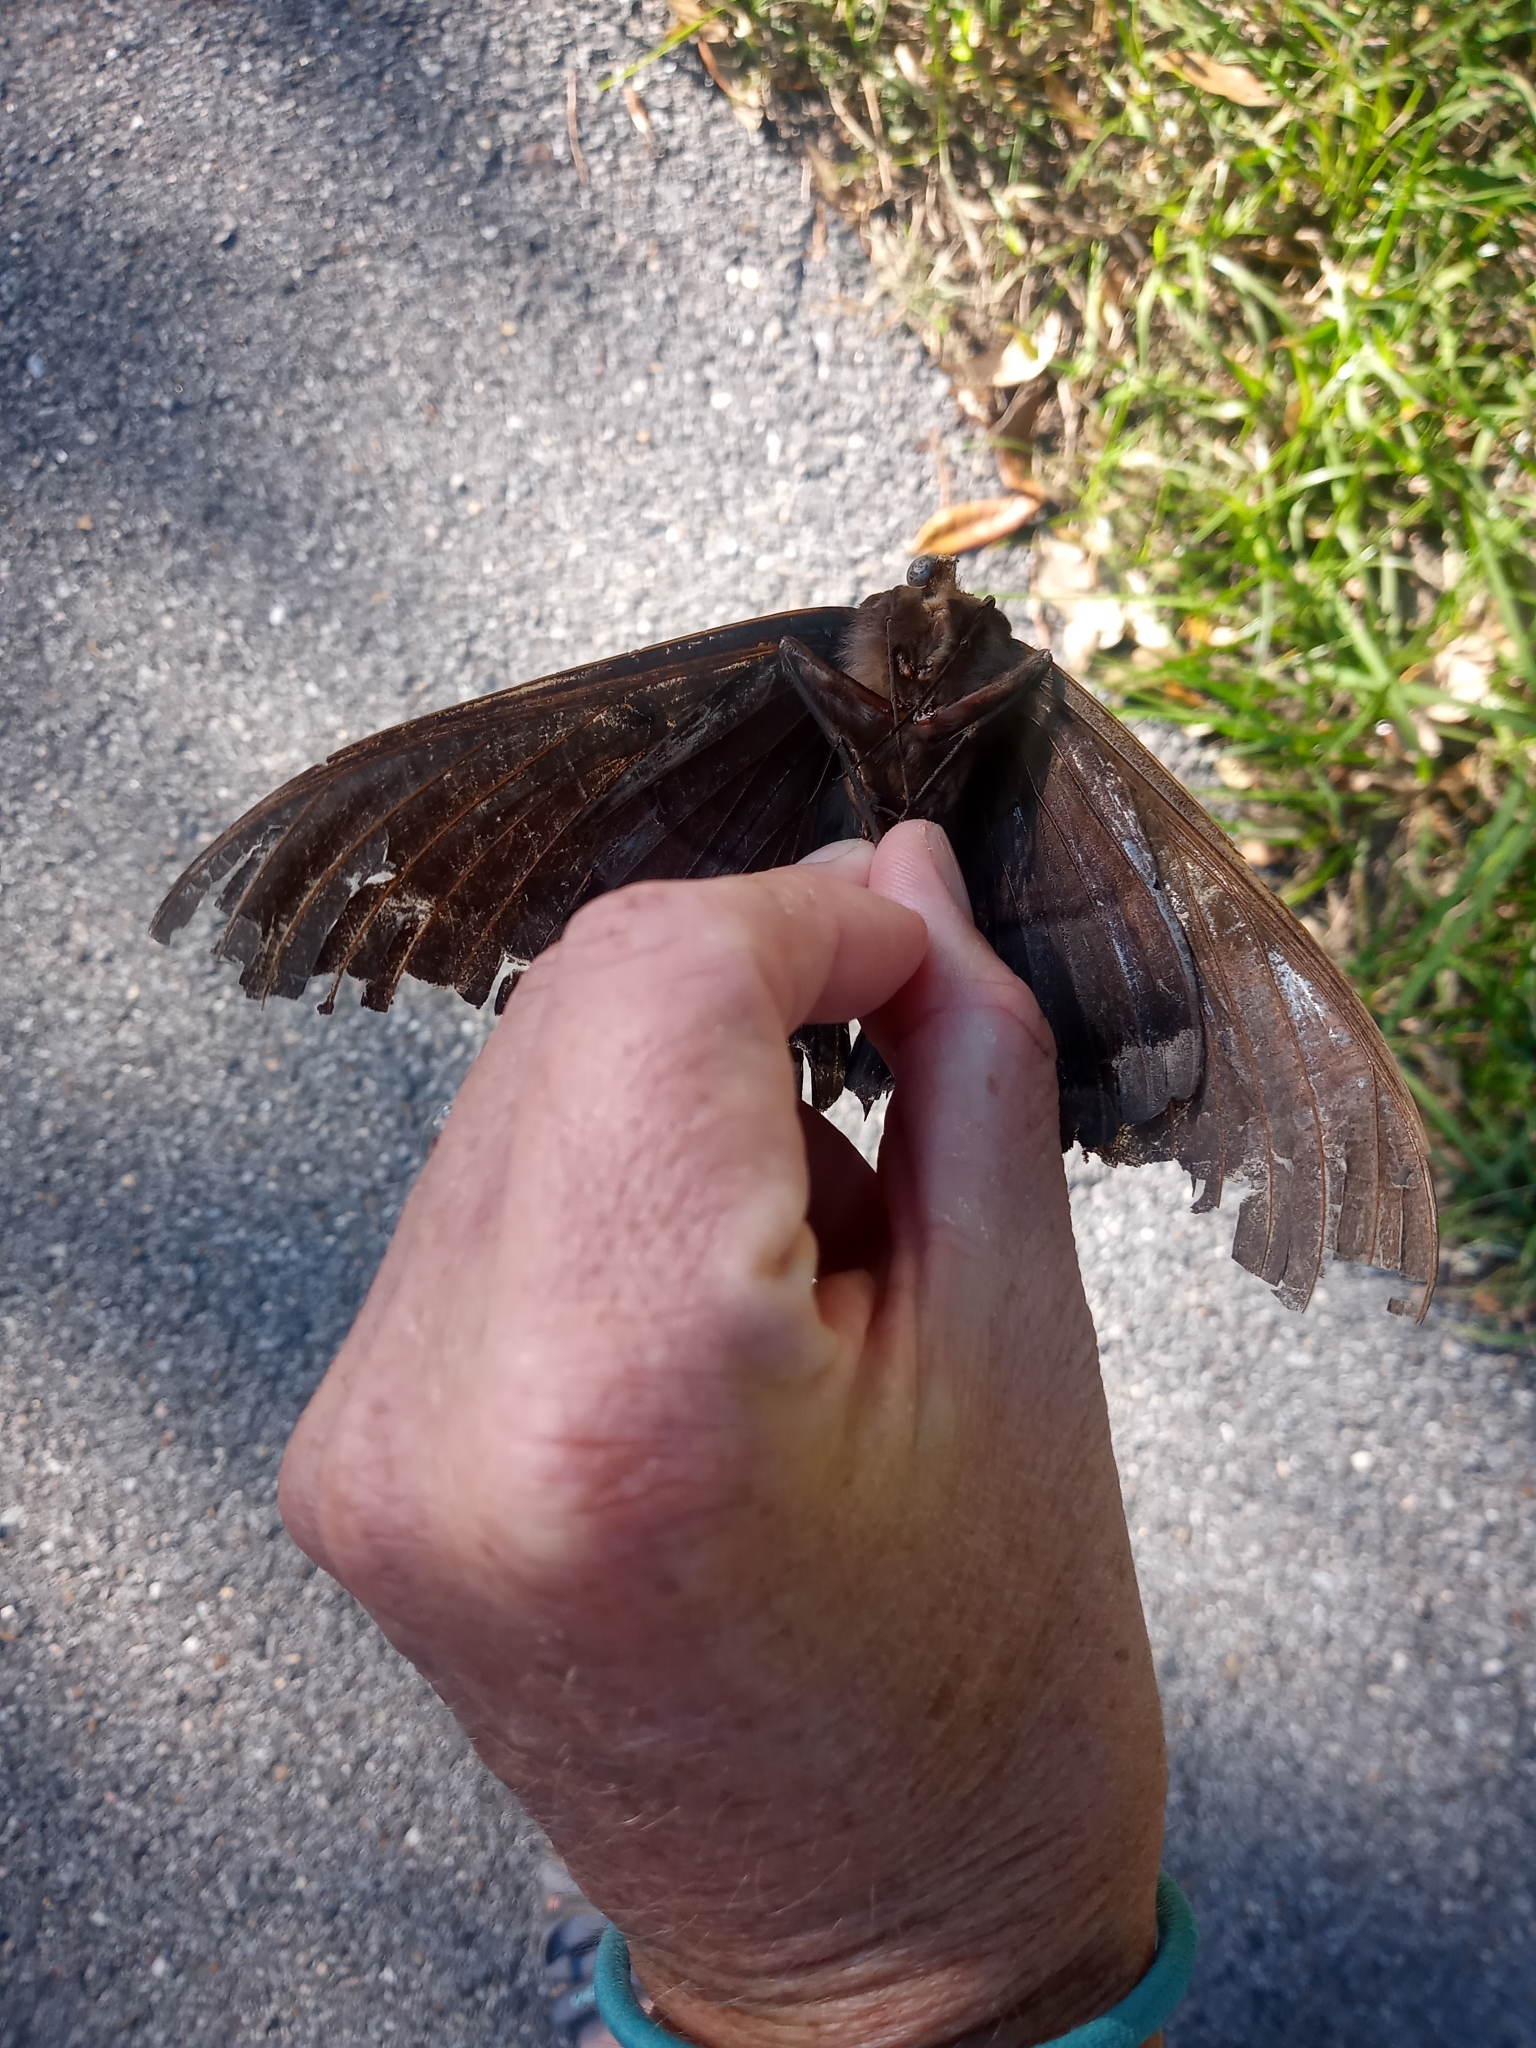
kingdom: Animalia
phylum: Arthropoda
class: Insecta
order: Lepidoptera
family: Erebidae
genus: Ascalapha
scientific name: Ascalapha odorata
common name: Black witch
